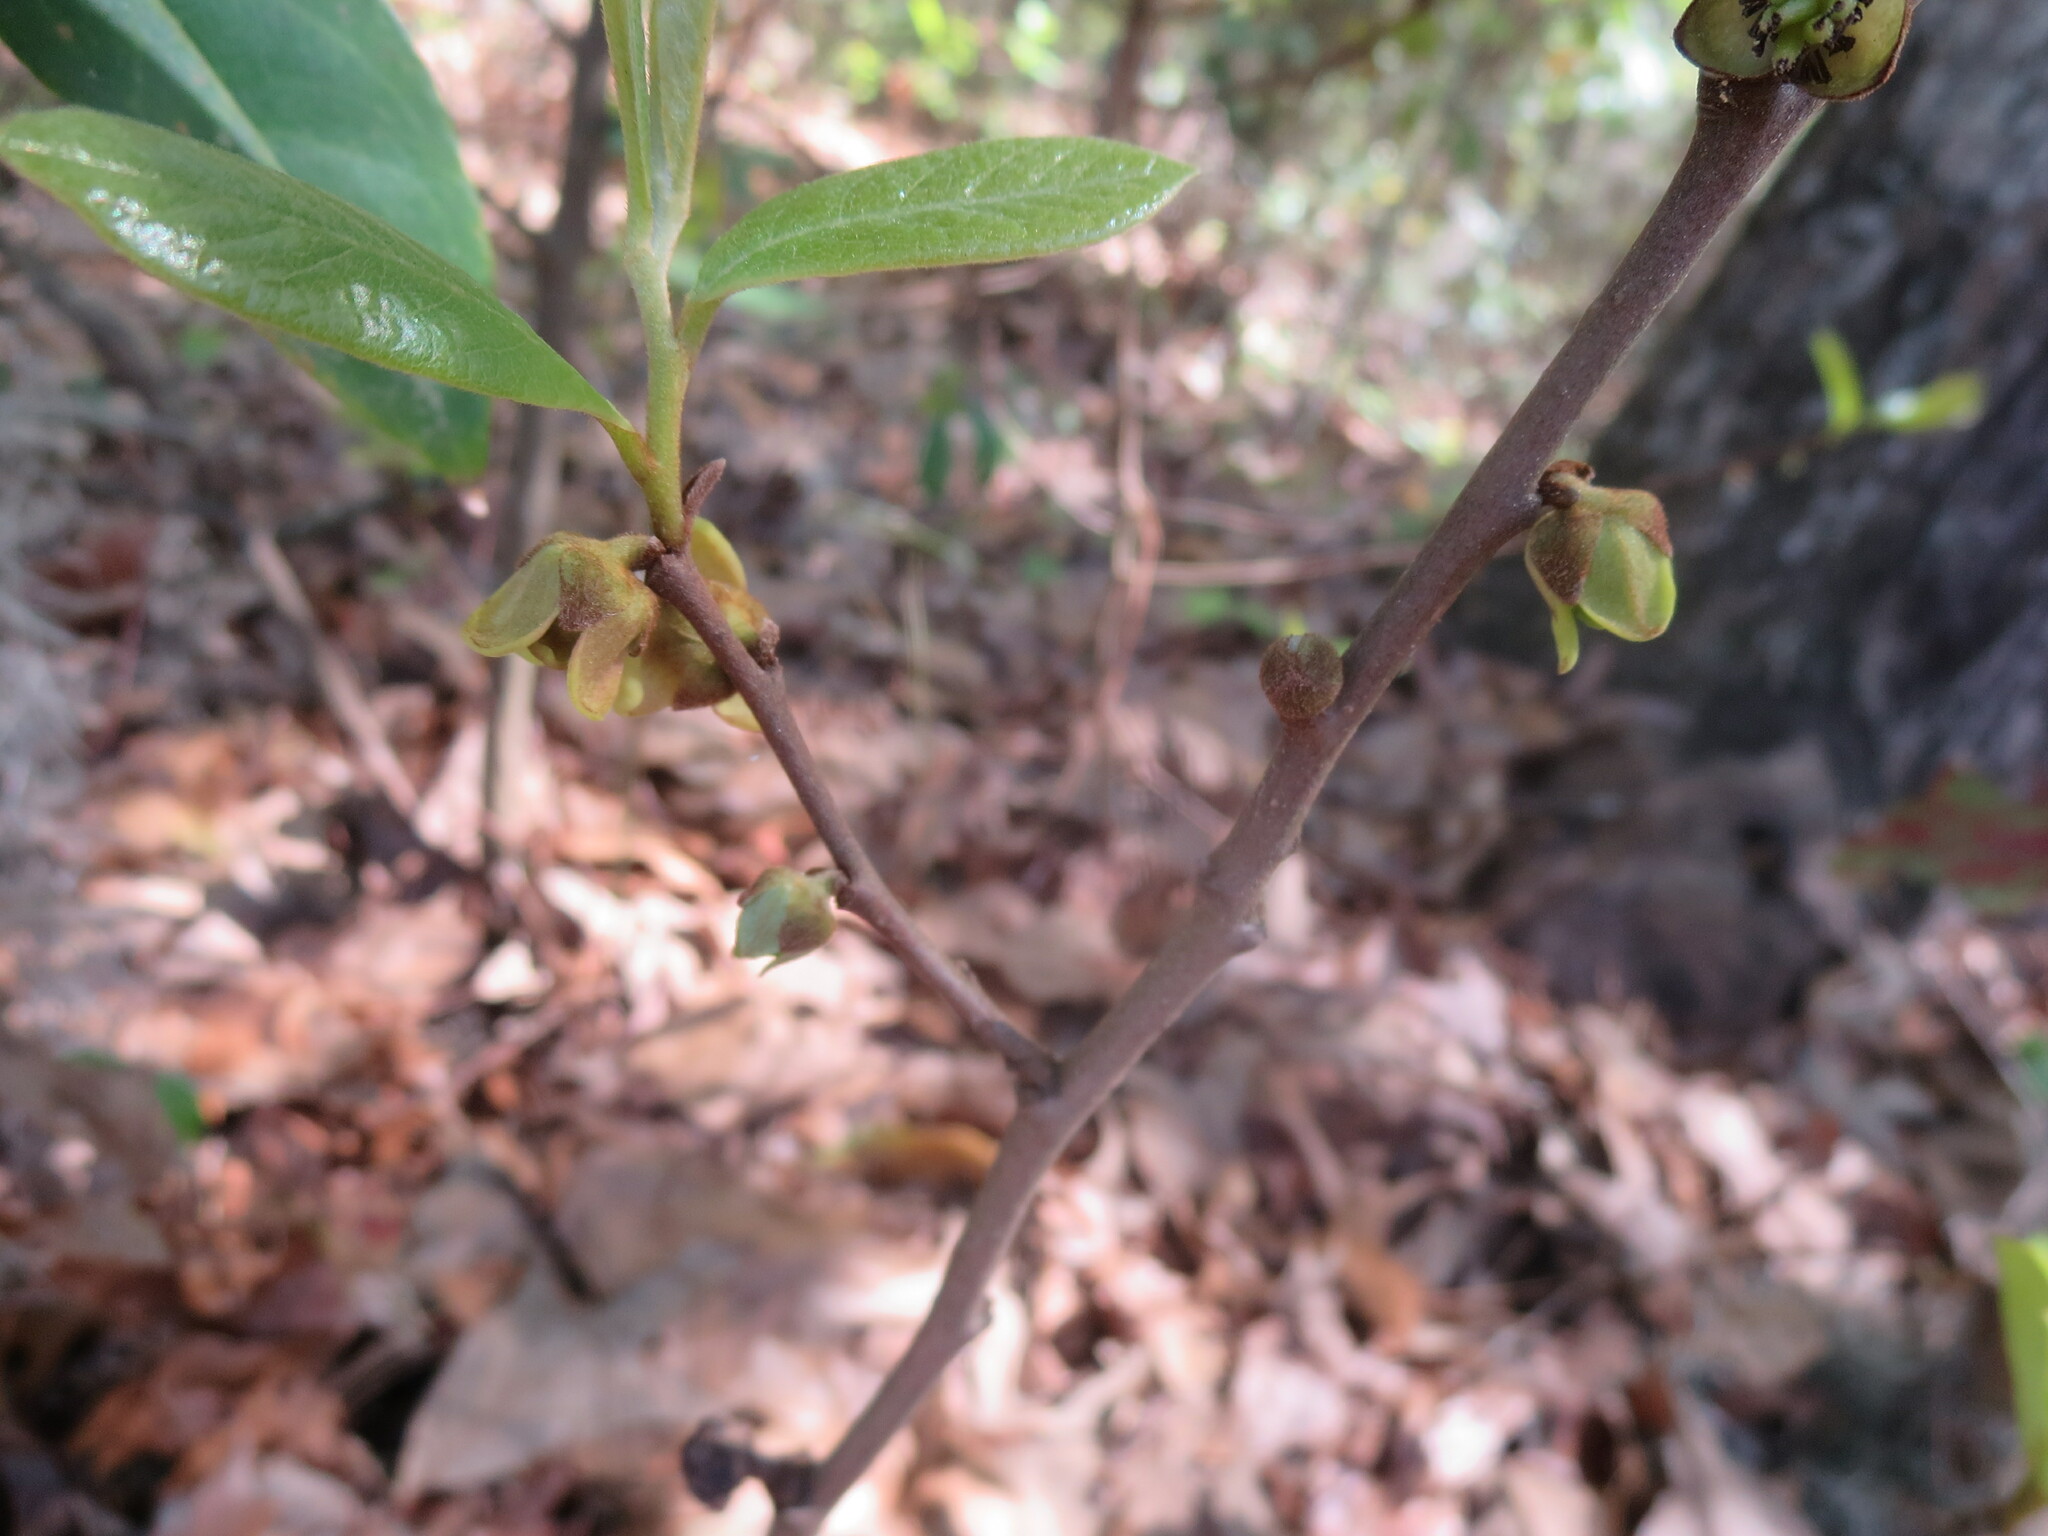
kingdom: Plantae
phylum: Tracheophyta
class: Magnoliopsida
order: Magnoliales
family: Annonaceae
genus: Asimina
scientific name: Asimina parviflora
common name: Dwarf pawpaw
